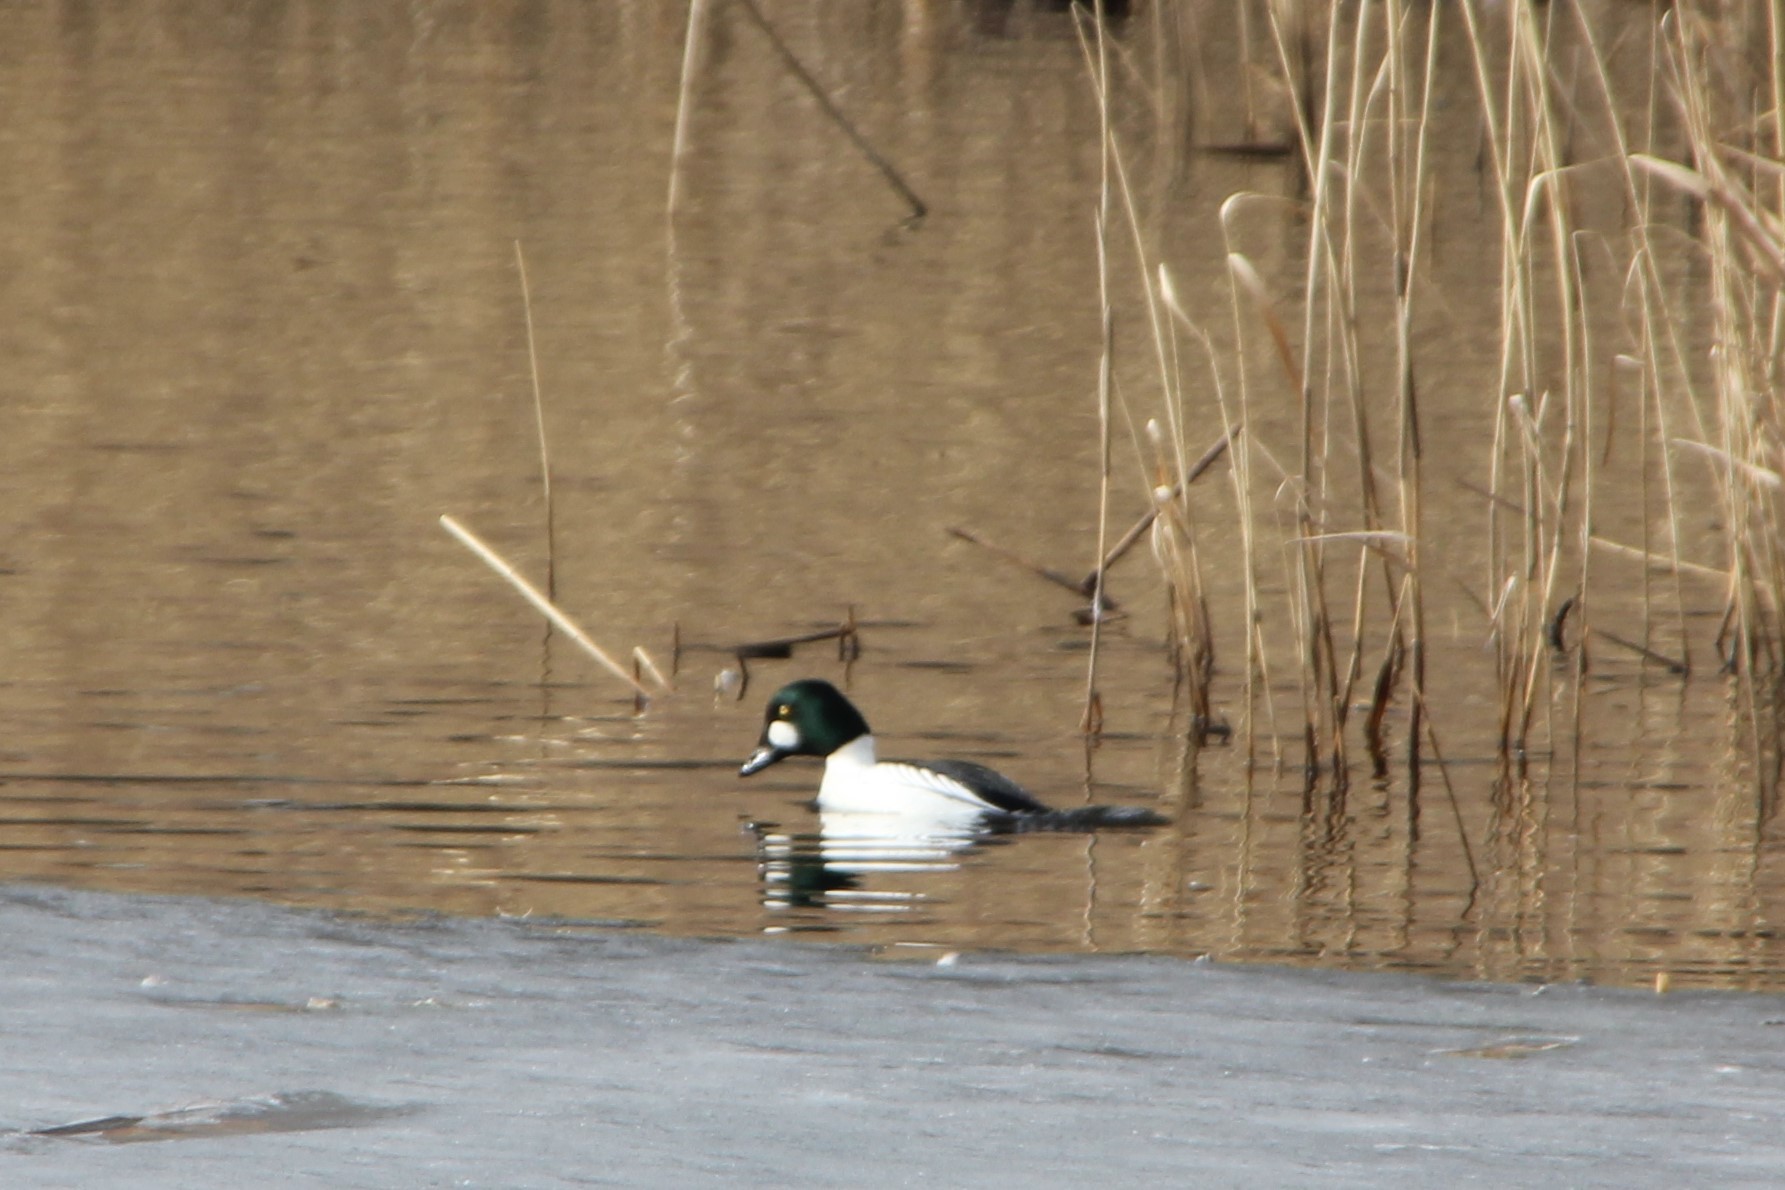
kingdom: Animalia
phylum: Chordata
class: Aves
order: Anseriformes
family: Anatidae
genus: Bucephala
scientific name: Bucephala clangula
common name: Common goldeneye
